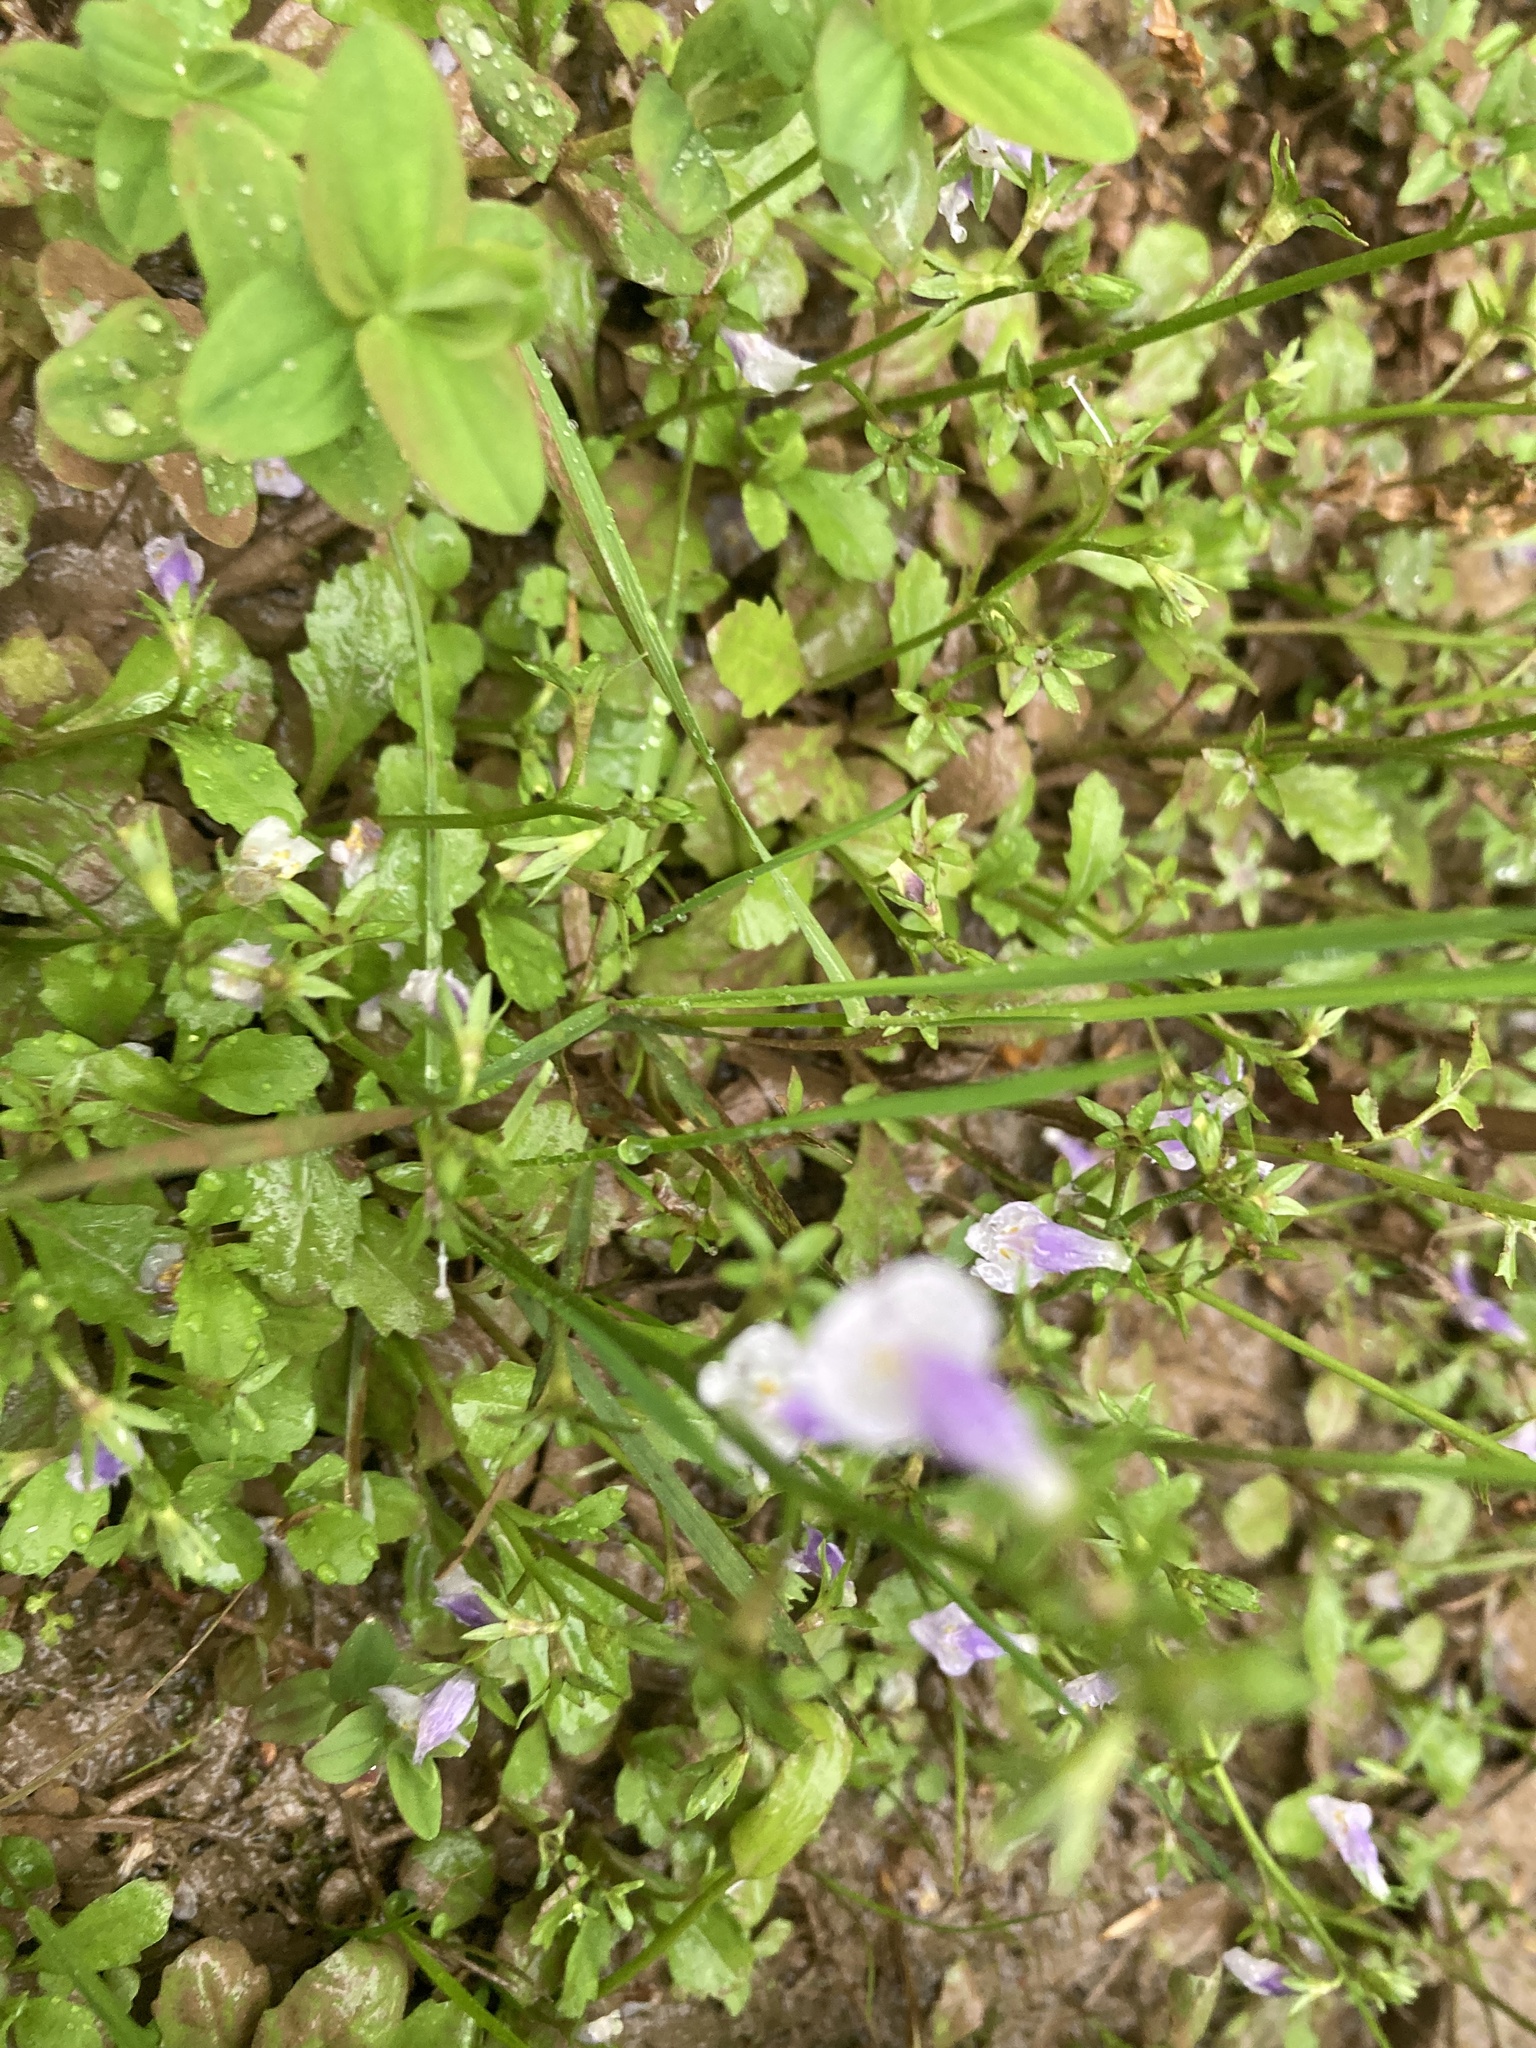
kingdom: Plantae
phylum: Tracheophyta
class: Magnoliopsida
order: Lamiales
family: Mazaceae
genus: Mazus
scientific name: Mazus pumilus
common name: Japanese mazus
